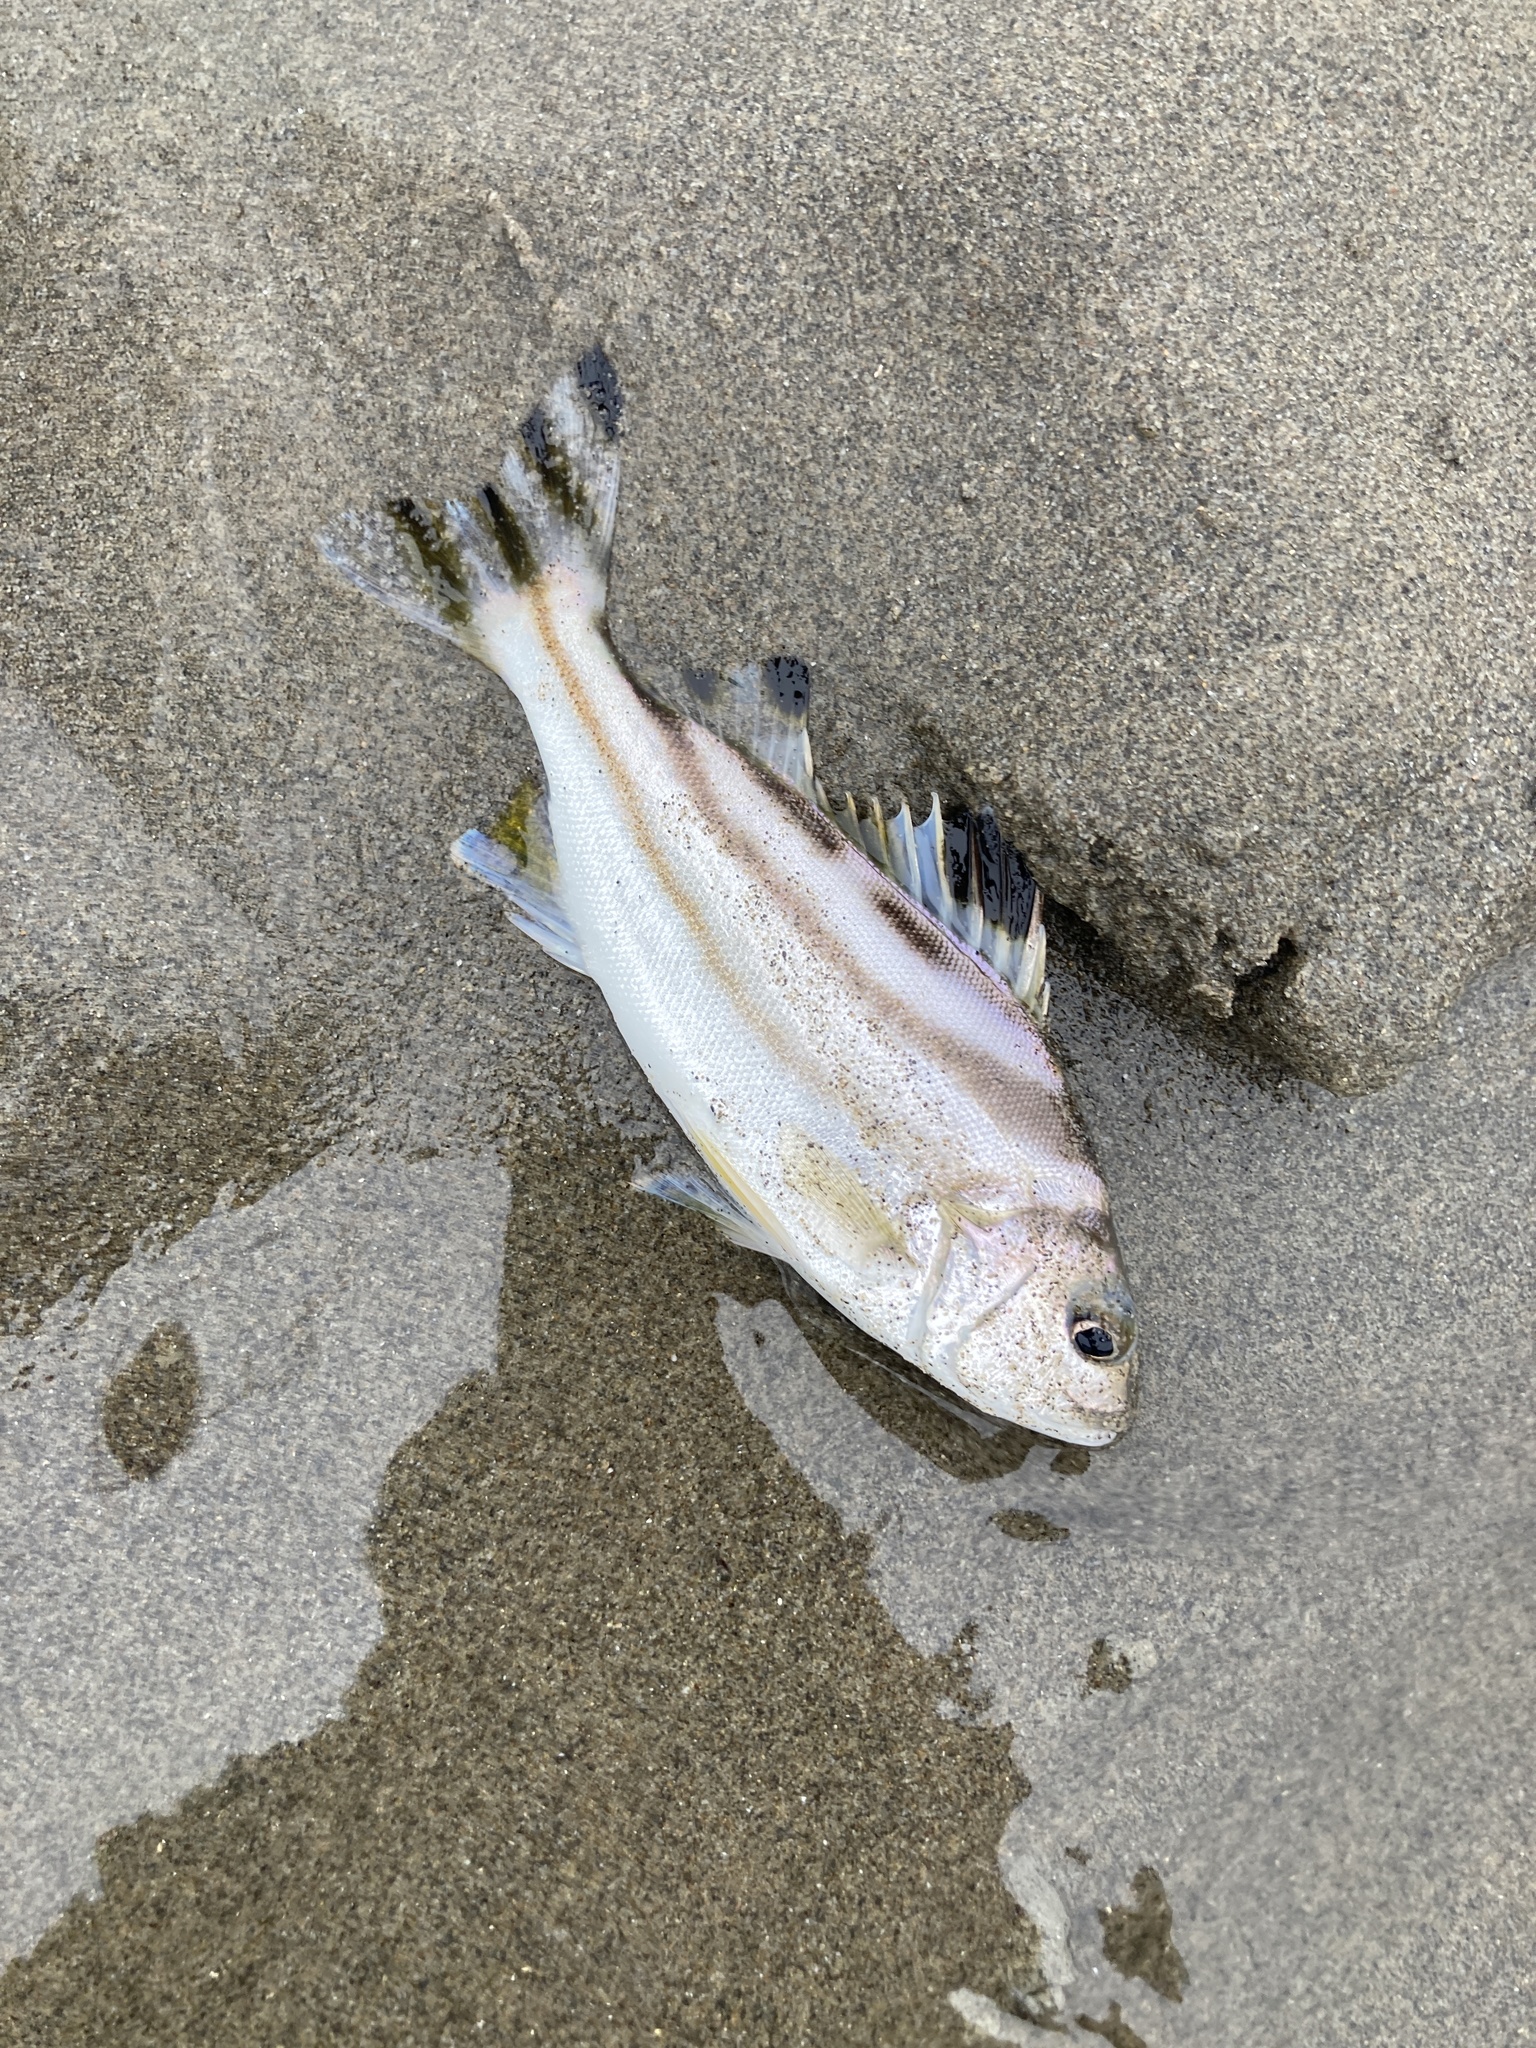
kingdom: Animalia
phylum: Chordata
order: Perciformes
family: Terapontidae
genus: Terapon
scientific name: Terapon jarbua
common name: Jarbua terapon
